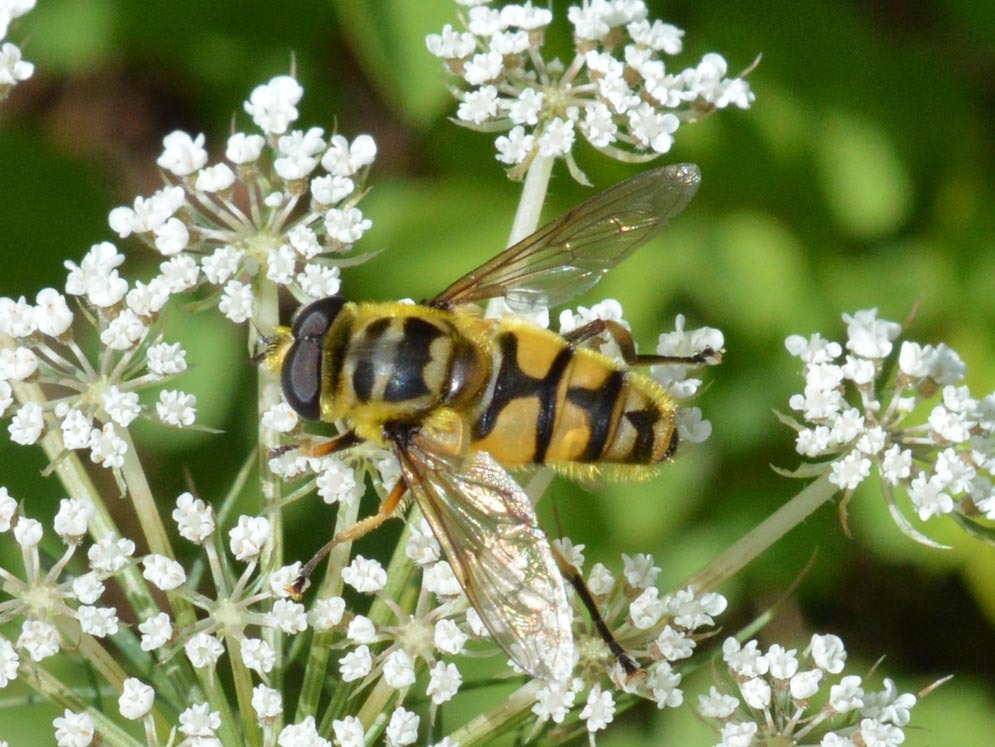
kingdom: Animalia
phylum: Arthropoda
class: Insecta
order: Diptera
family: Syrphidae
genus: Myathropa
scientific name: Myathropa florea
